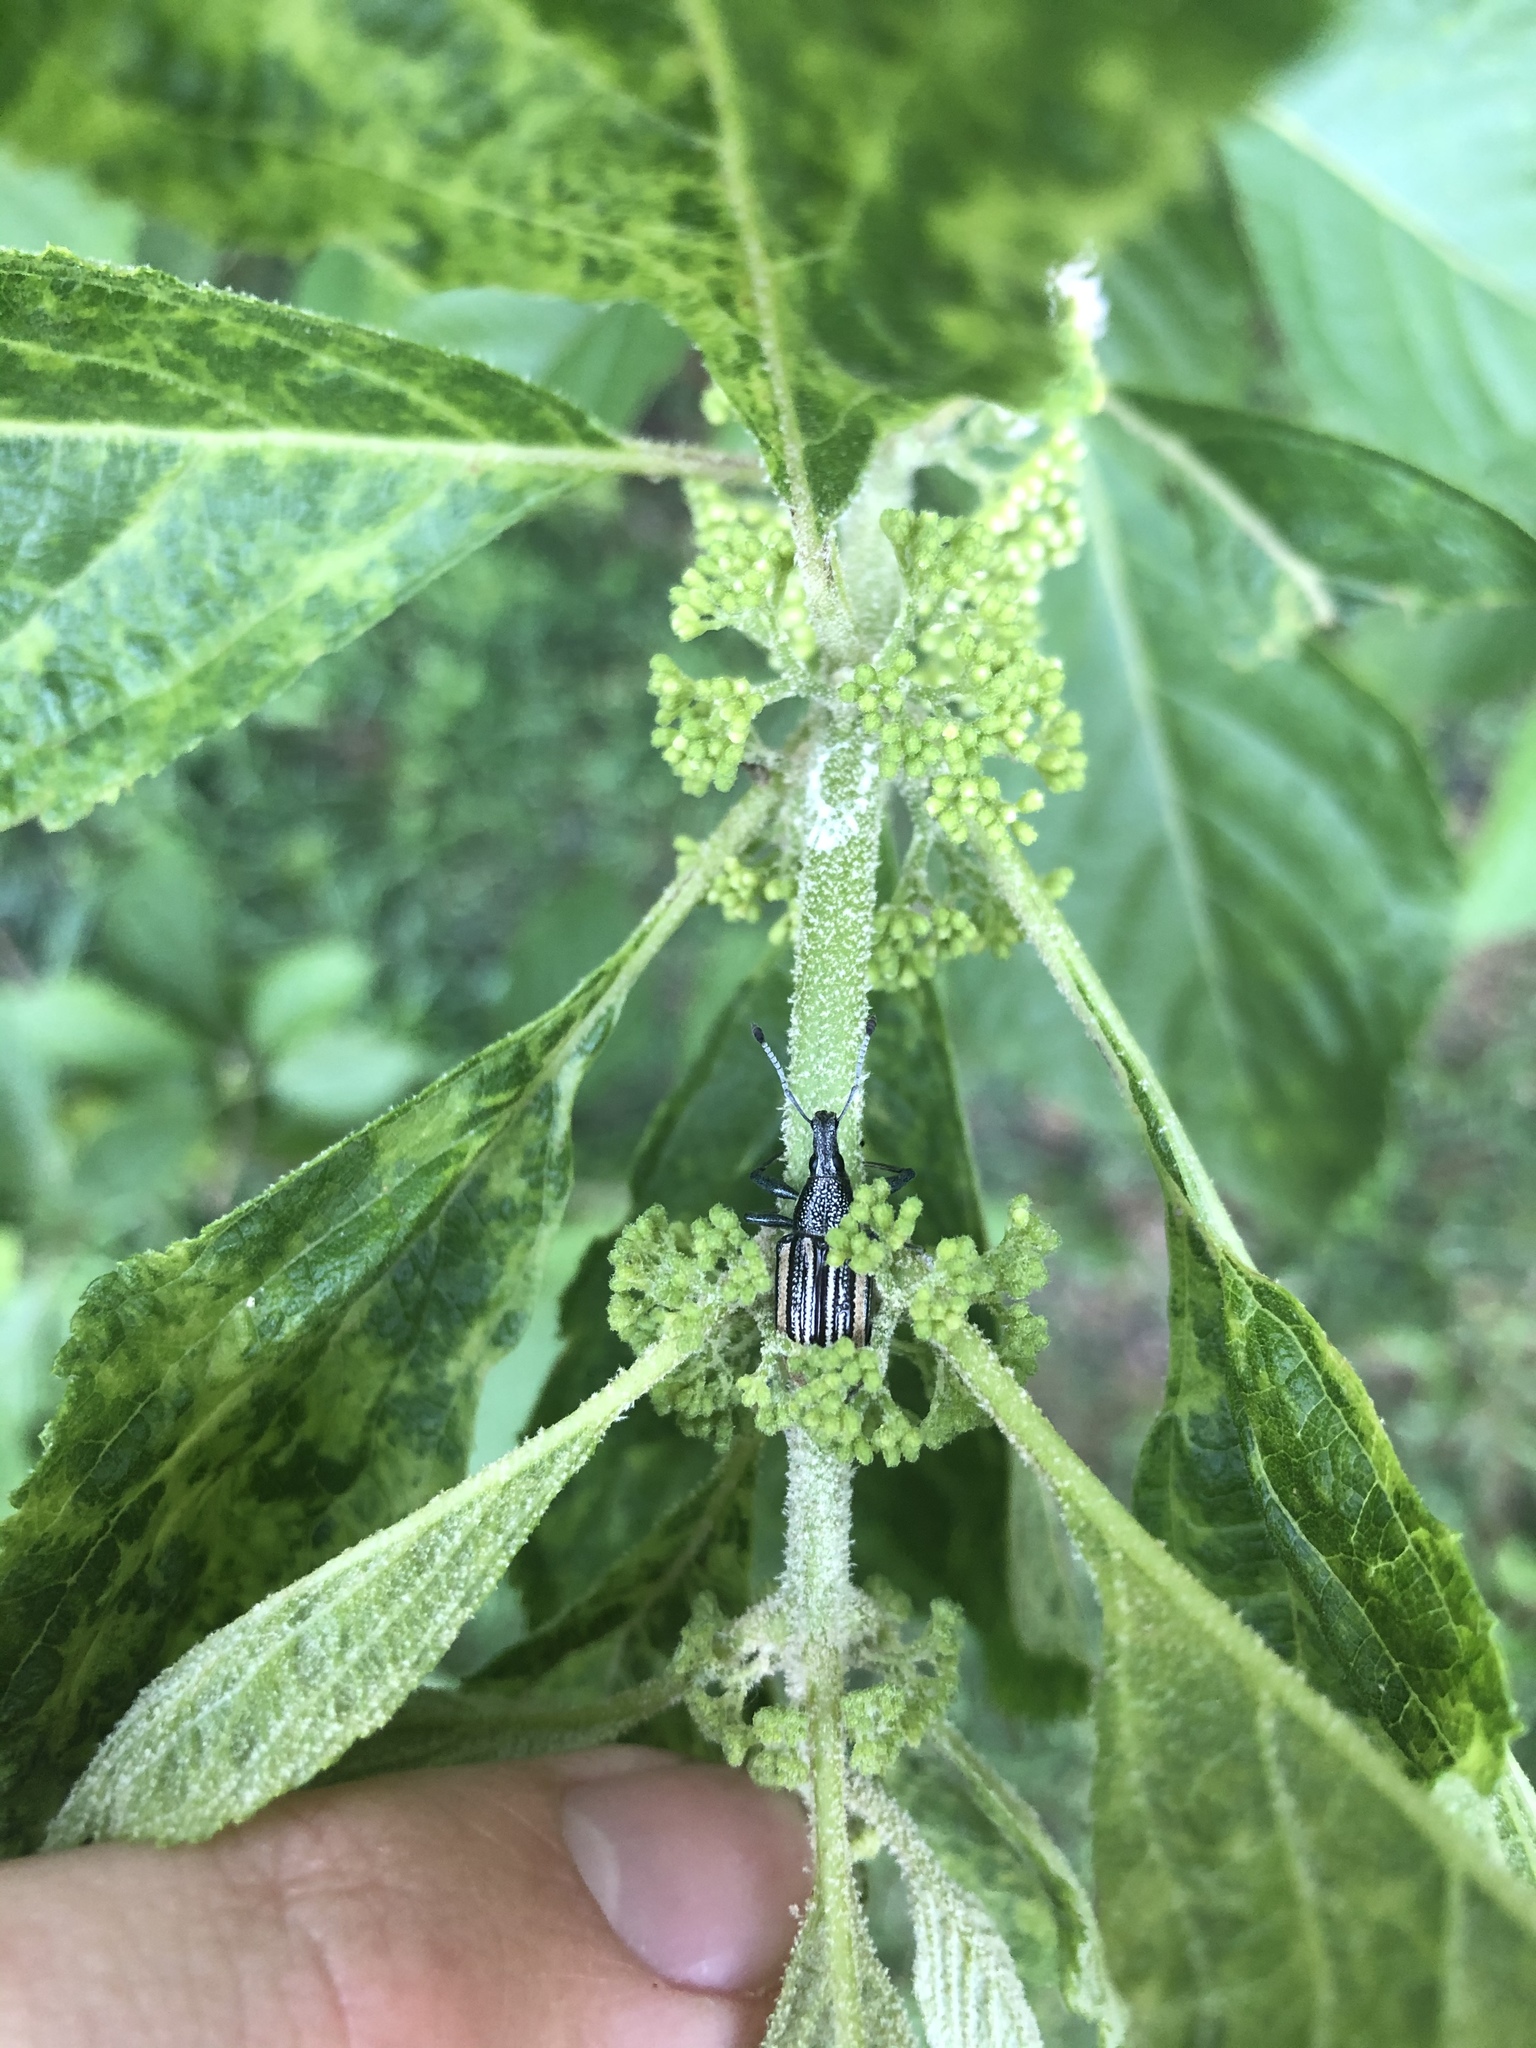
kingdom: Animalia
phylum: Arthropoda
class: Insecta
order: Coleoptera
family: Curculionidae
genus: Diaprepes
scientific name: Diaprepes abbreviatus
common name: Root weevil
